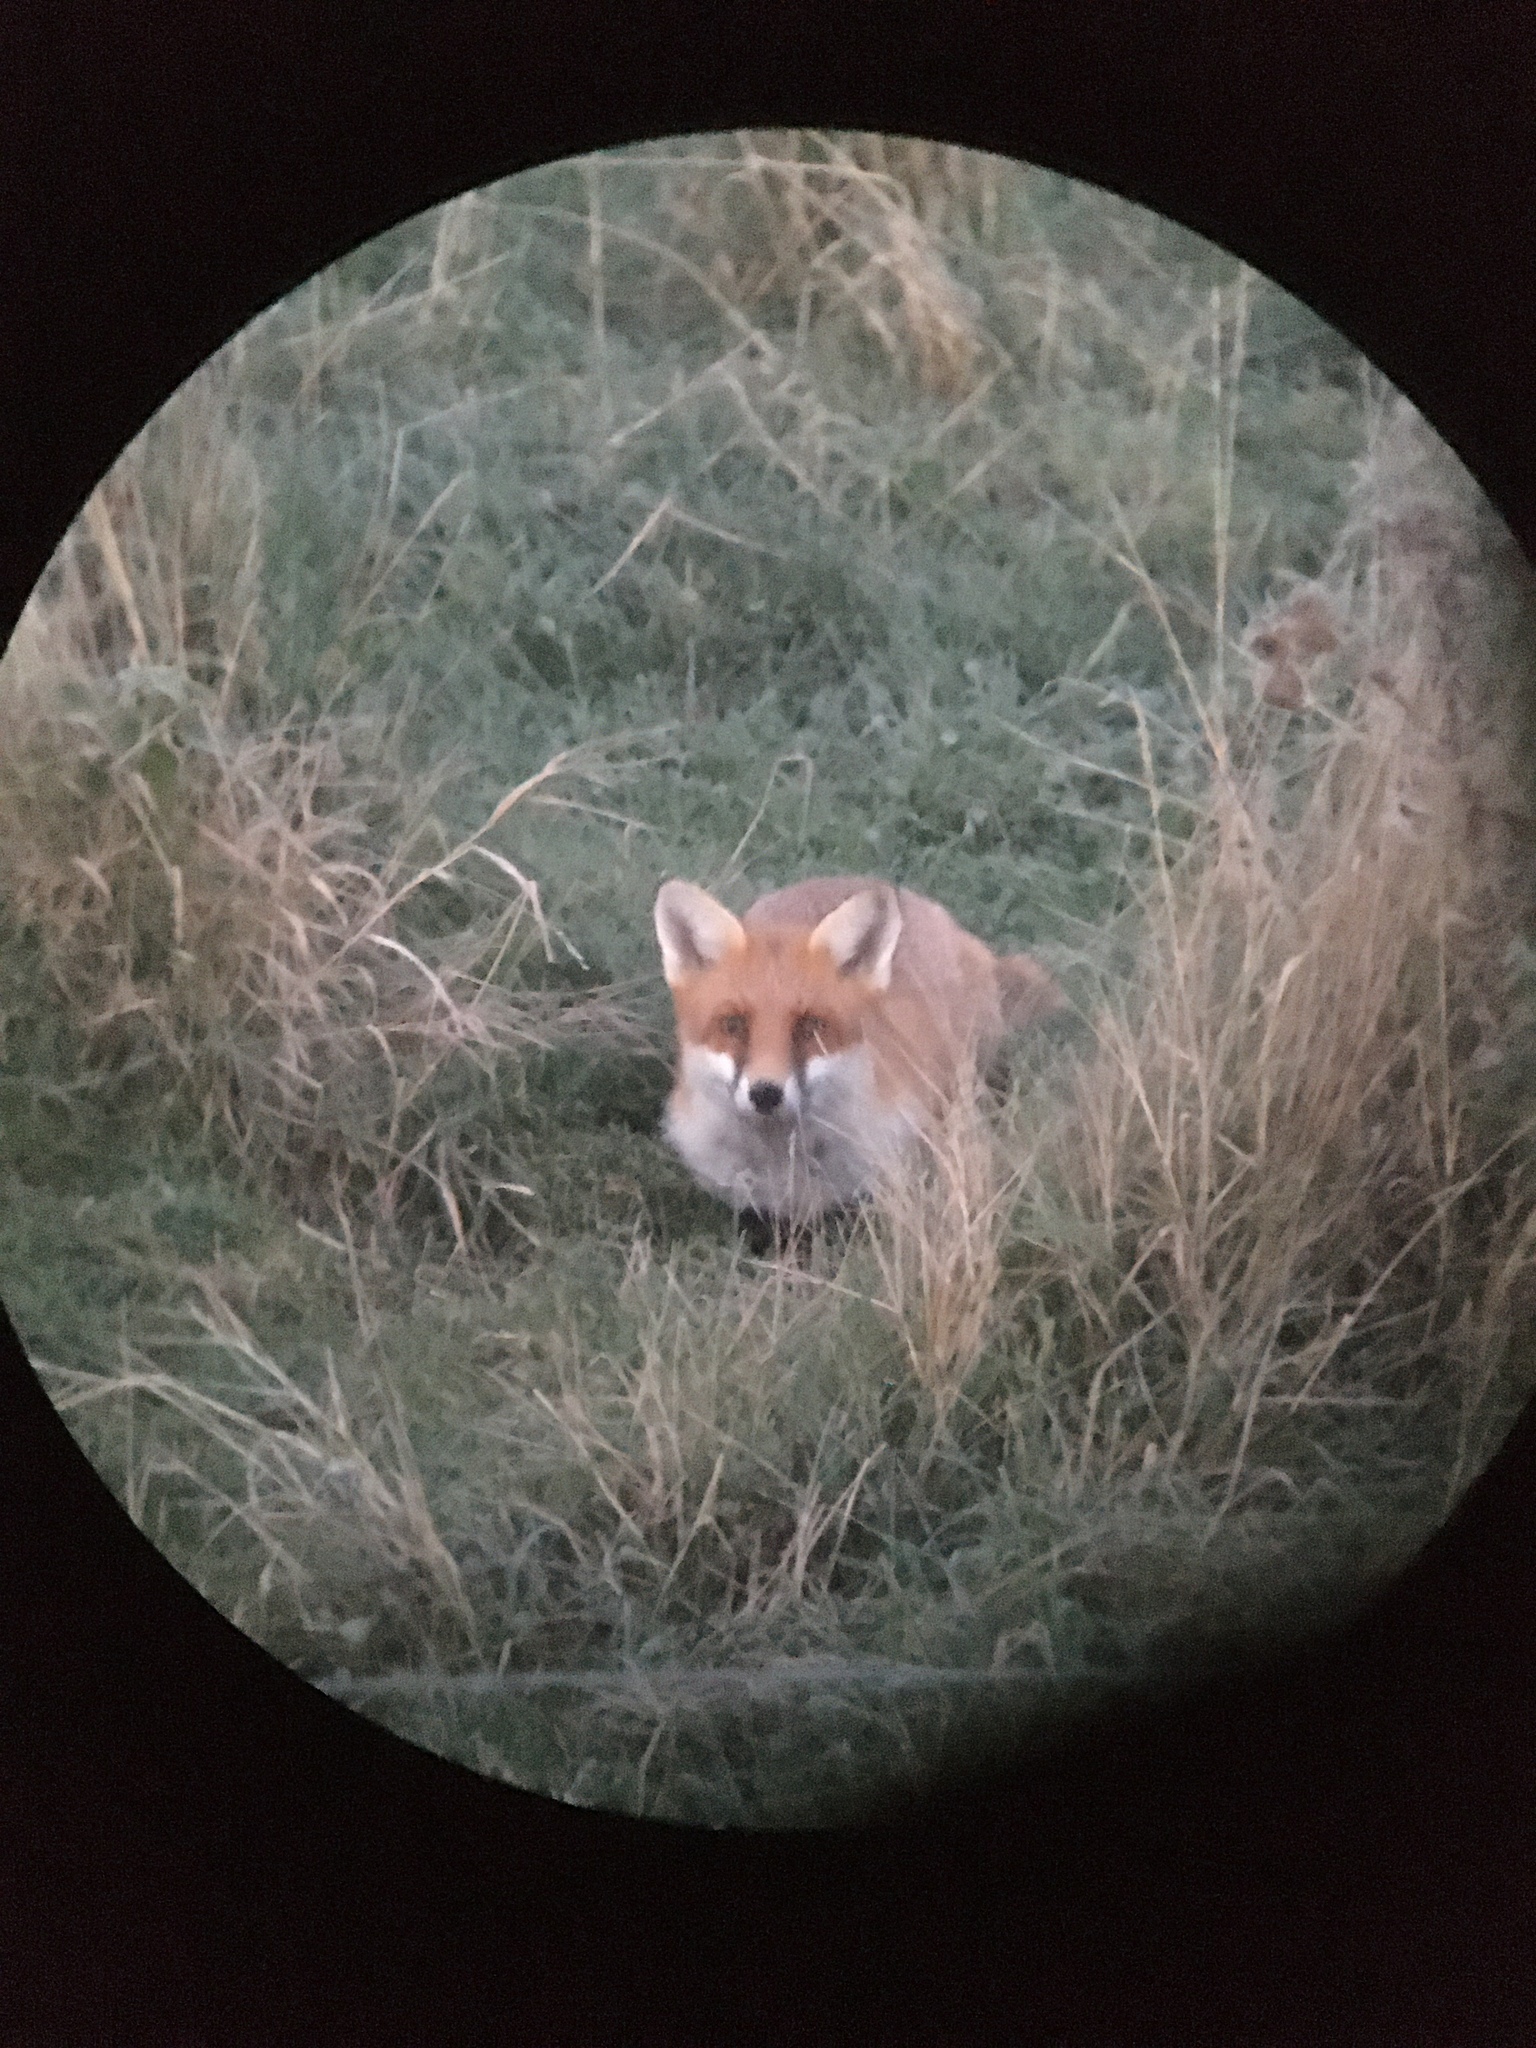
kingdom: Animalia
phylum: Chordata
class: Mammalia
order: Carnivora
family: Canidae
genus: Vulpes
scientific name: Vulpes vulpes
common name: Red fox
